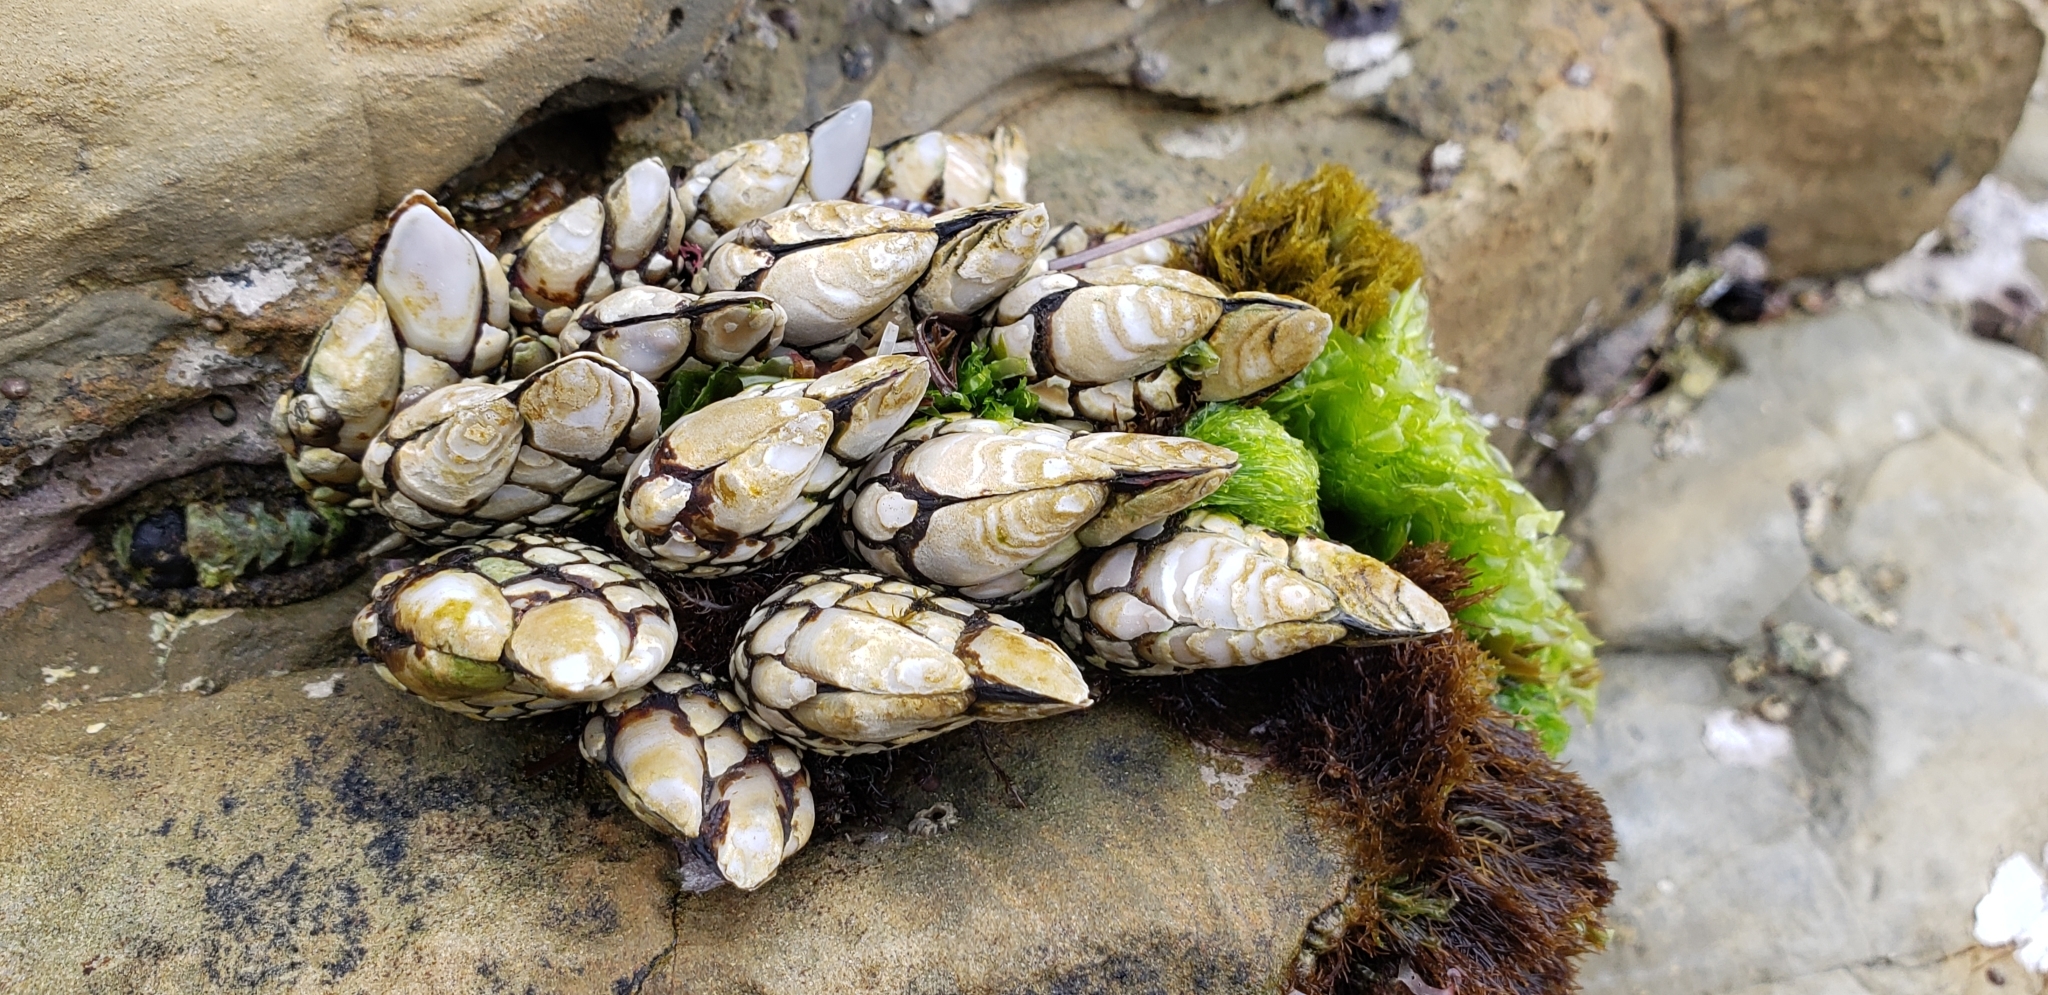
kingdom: Animalia
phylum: Arthropoda
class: Maxillopoda
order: Pedunculata
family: Pollicipedidae
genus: Pollicipes
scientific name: Pollicipes polymerus
